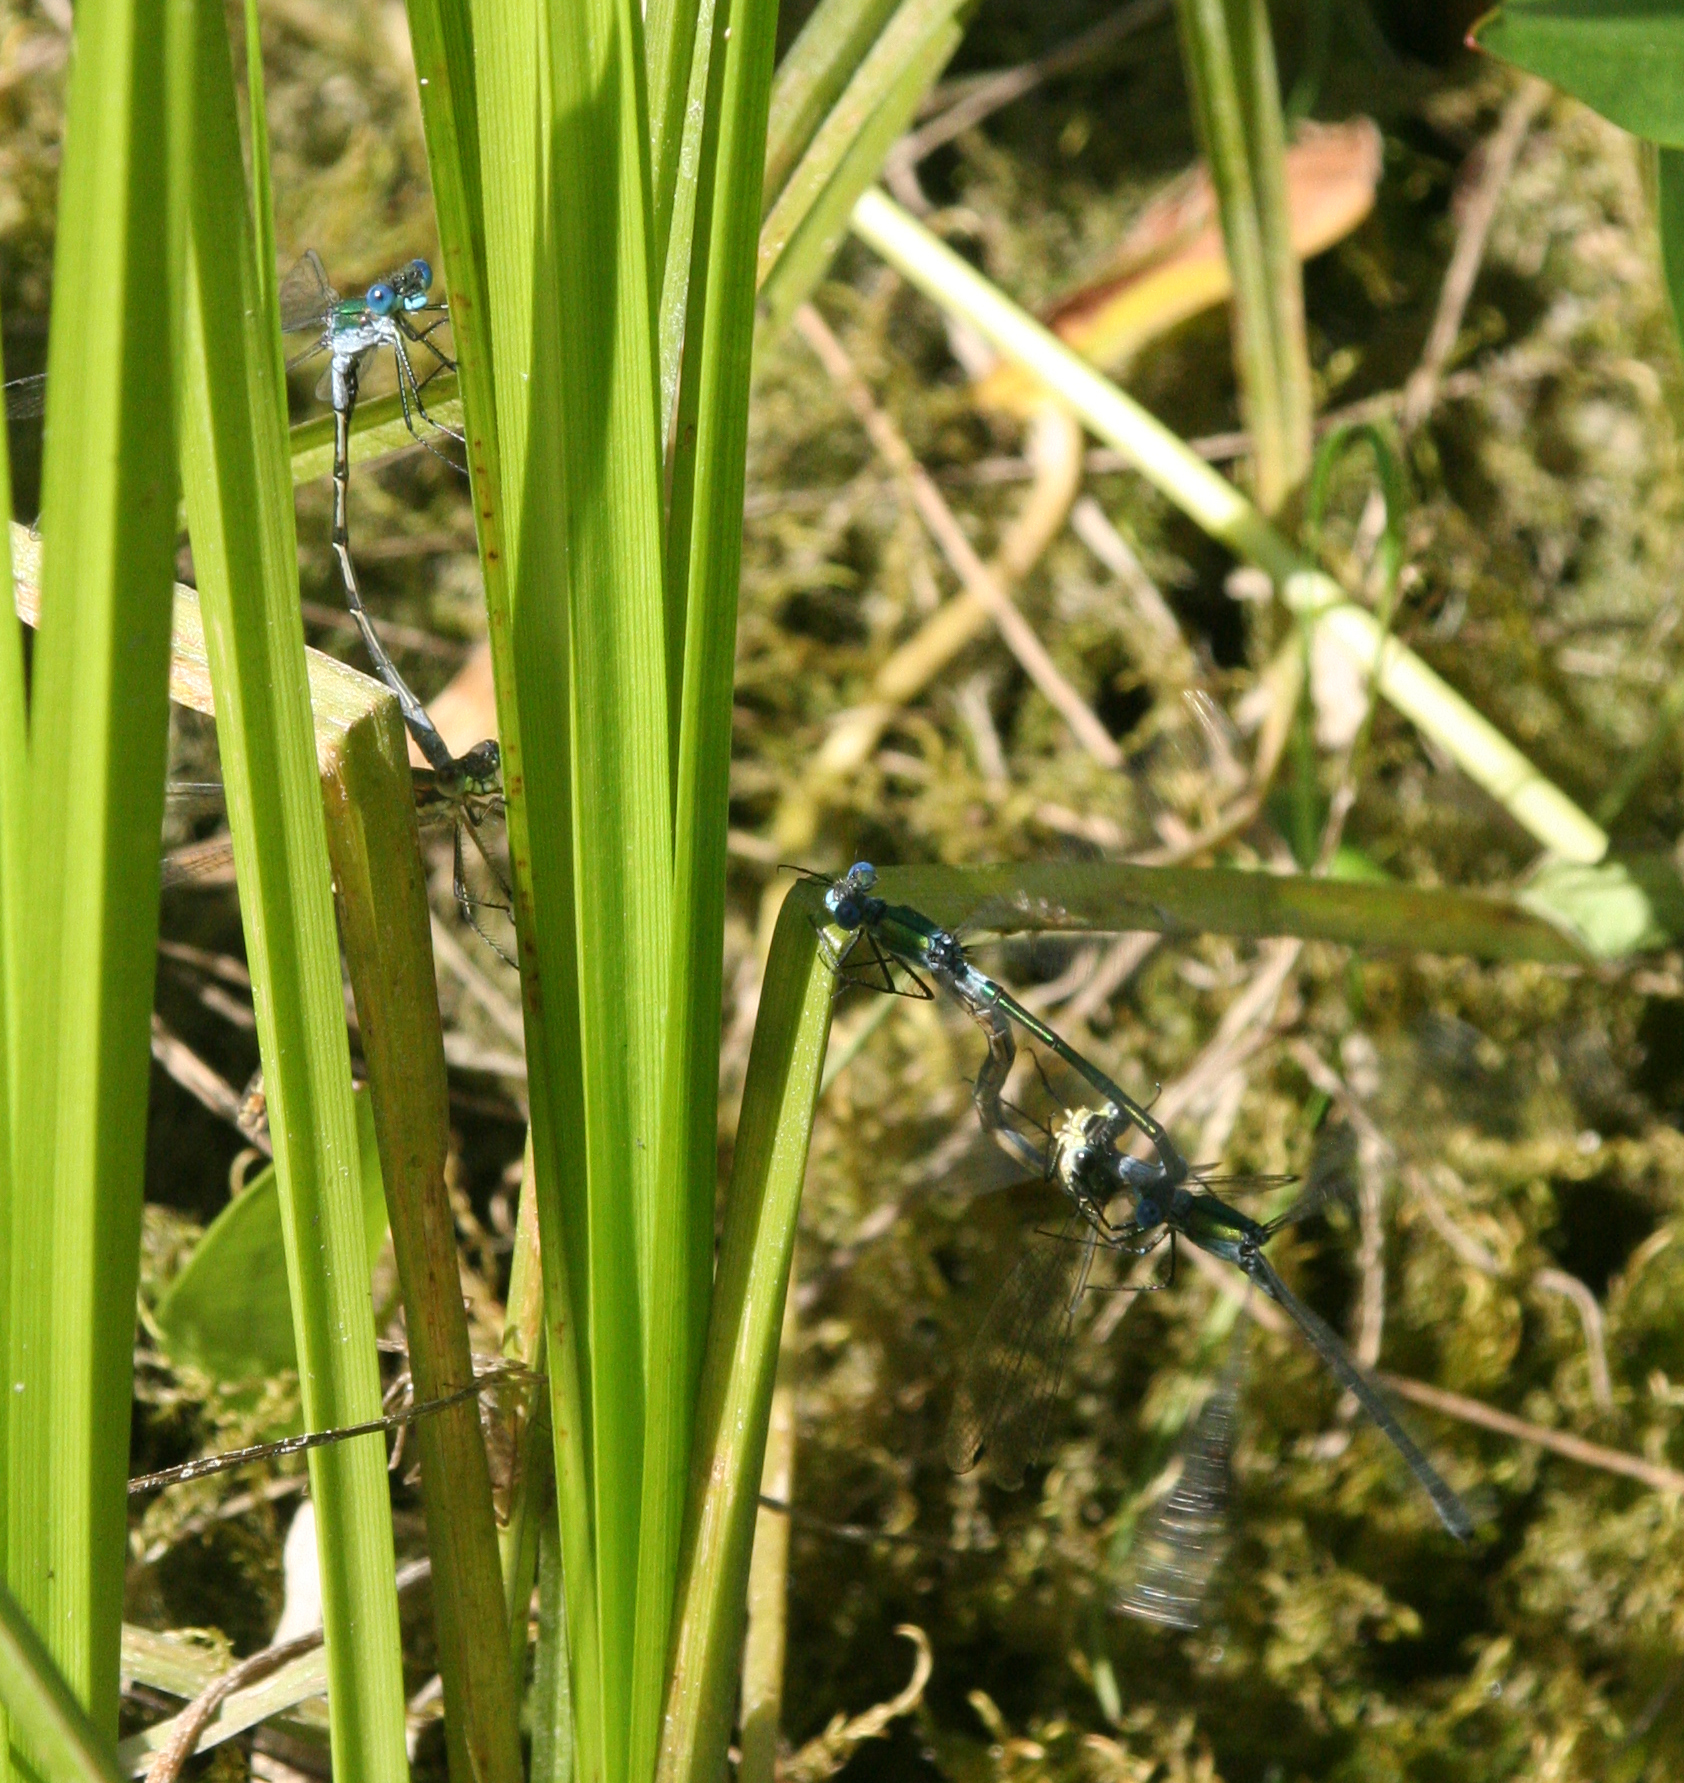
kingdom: Animalia
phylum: Arthropoda
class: Insecta
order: Odonata
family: Lestidae
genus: Lestes
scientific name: Lestes dryas
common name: Scarce emerald damselfly
